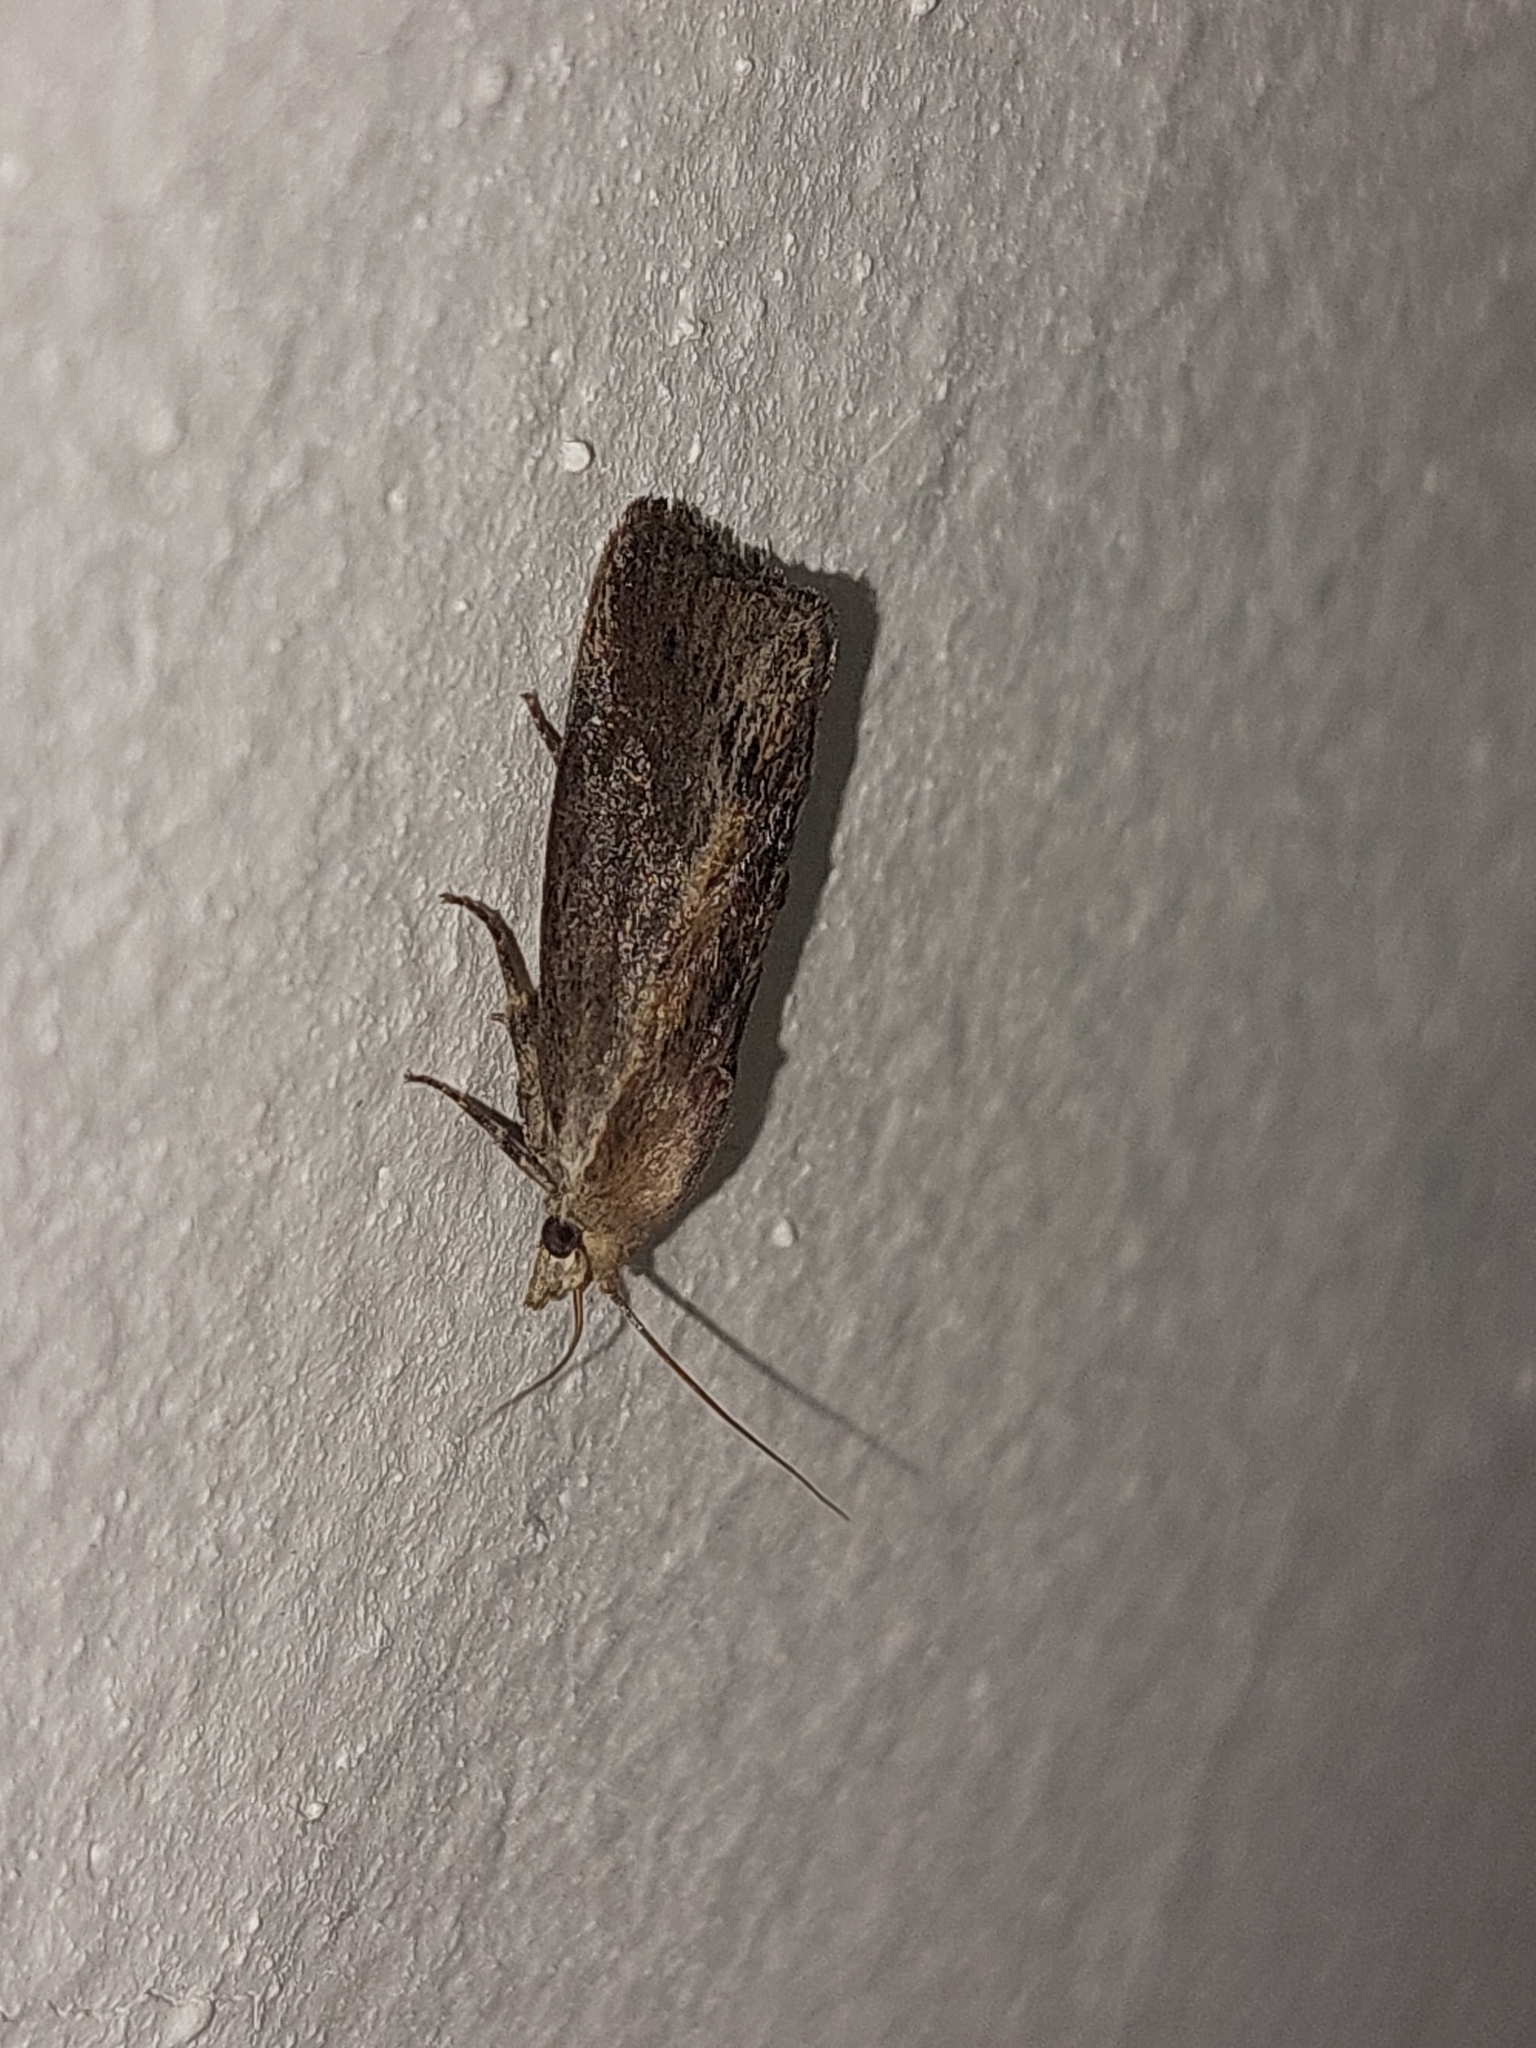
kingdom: Animalia
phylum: Arthropoda
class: Insecta
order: Lepidoptera
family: Pyralidae
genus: Galleria
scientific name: Galleria mellonella
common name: Greater wax moth
